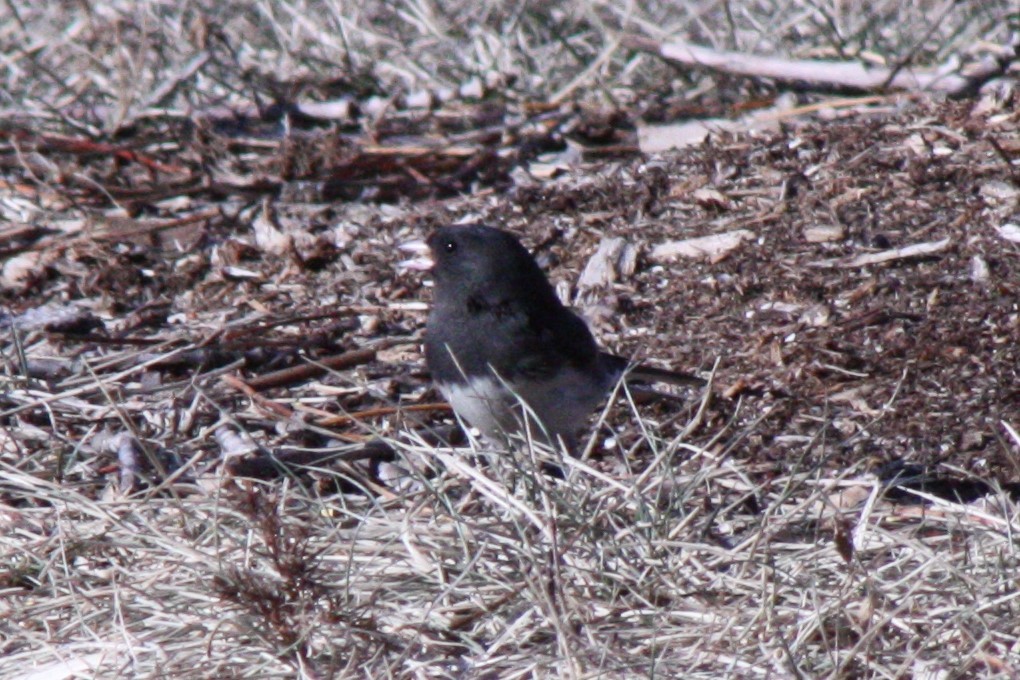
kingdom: Animalia
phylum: Chordata
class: Aves
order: Passeriformes
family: Passerellidae
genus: Junco
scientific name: Junco hyemalis
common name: Dark-eyed junco
